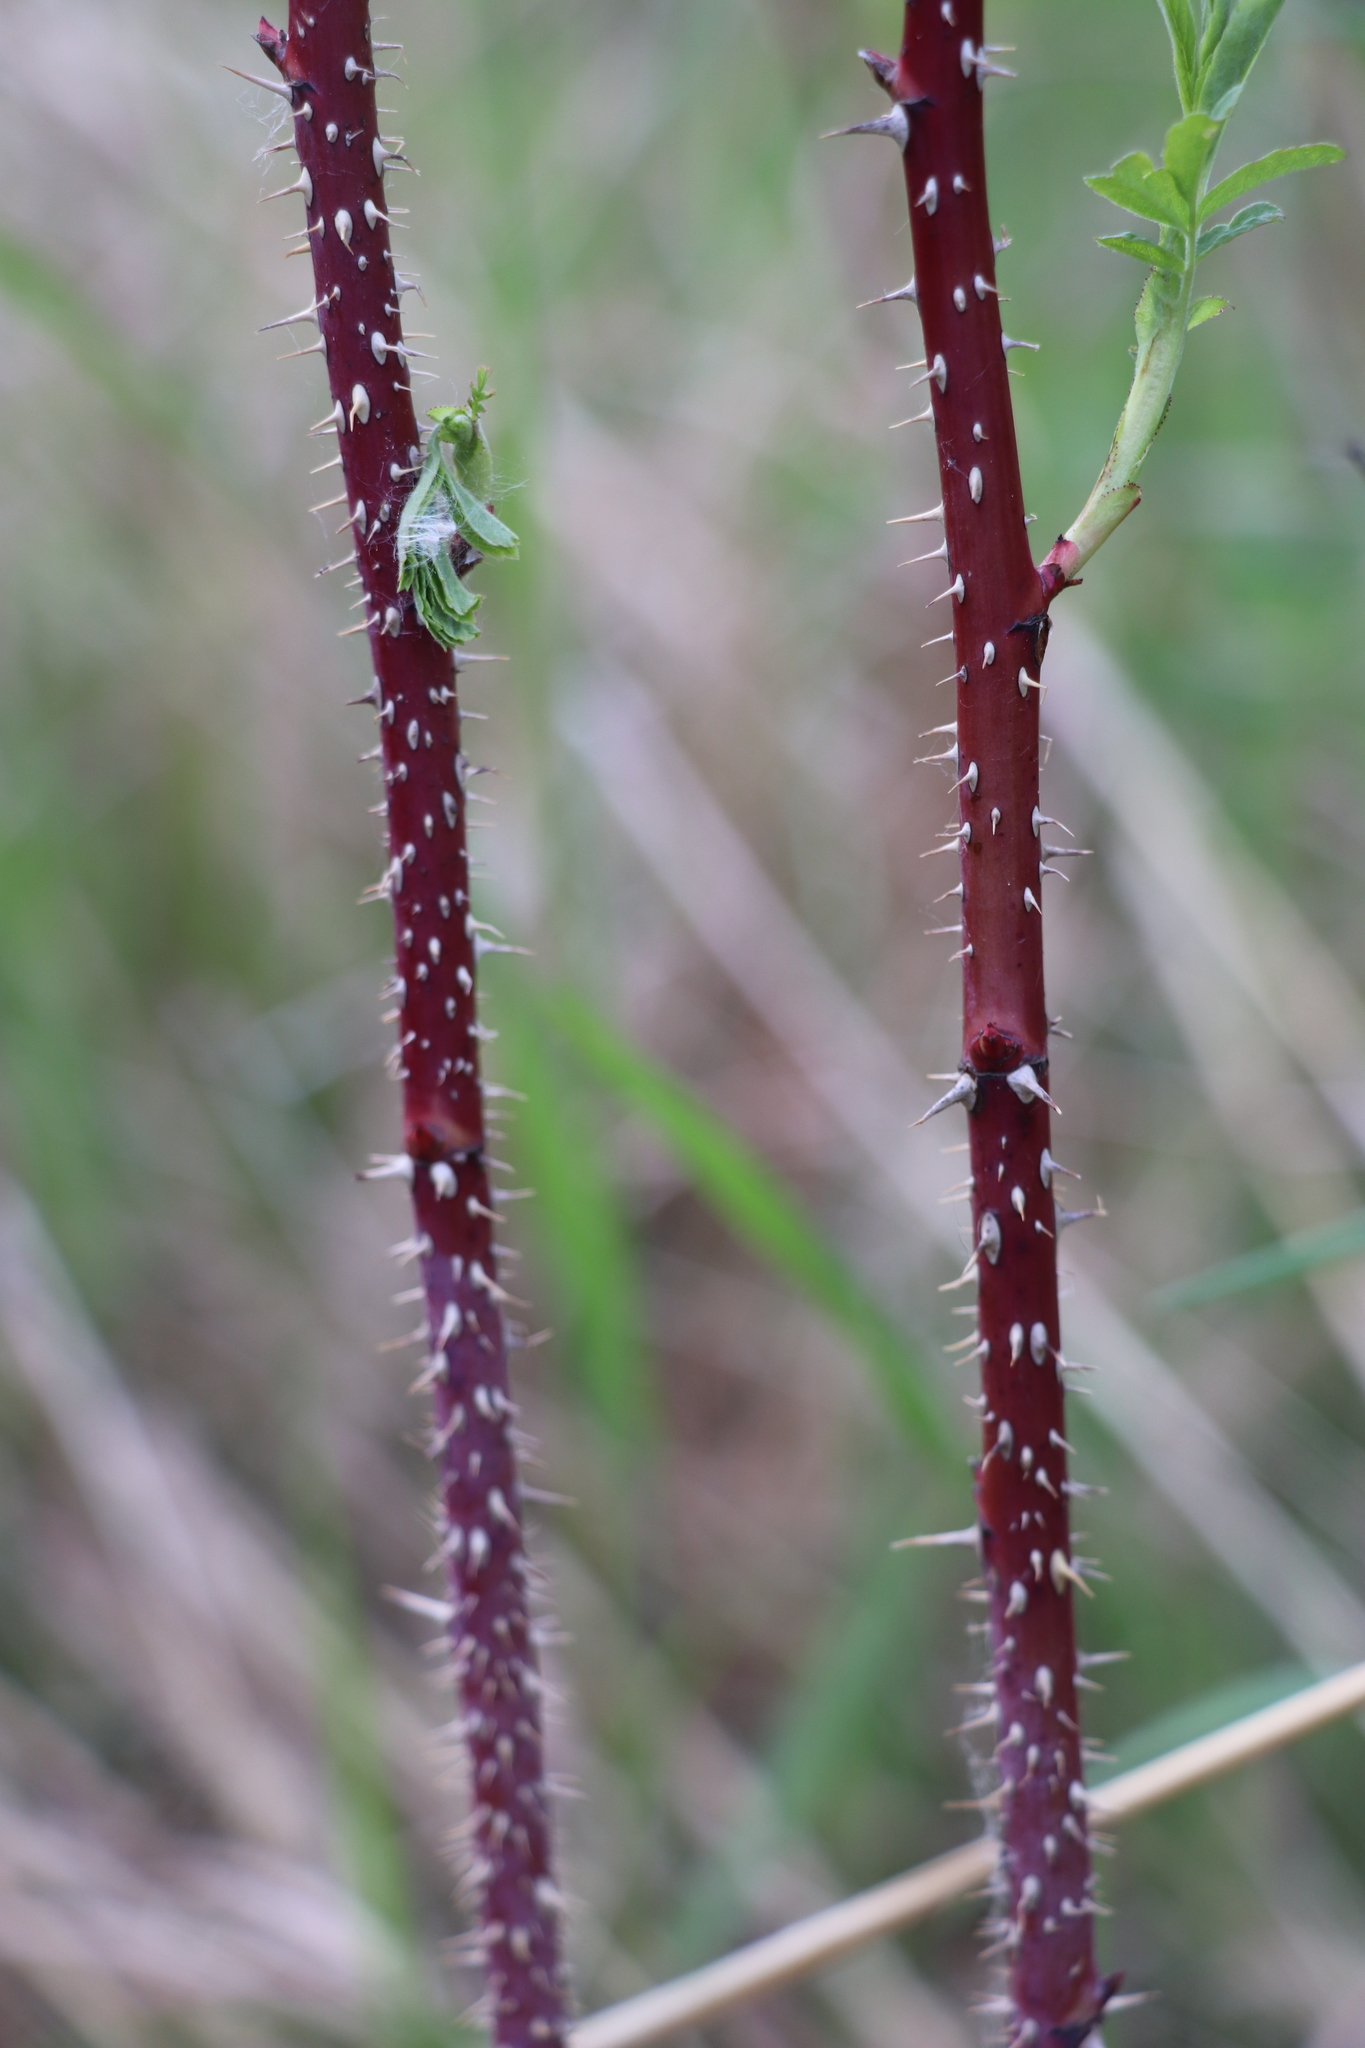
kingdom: Plantae
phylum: Tracheophyta
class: Magnoliopsida
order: Rosales
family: Rosaceae
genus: Rosa
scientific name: Rosa majalis
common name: Cinnamon rose
